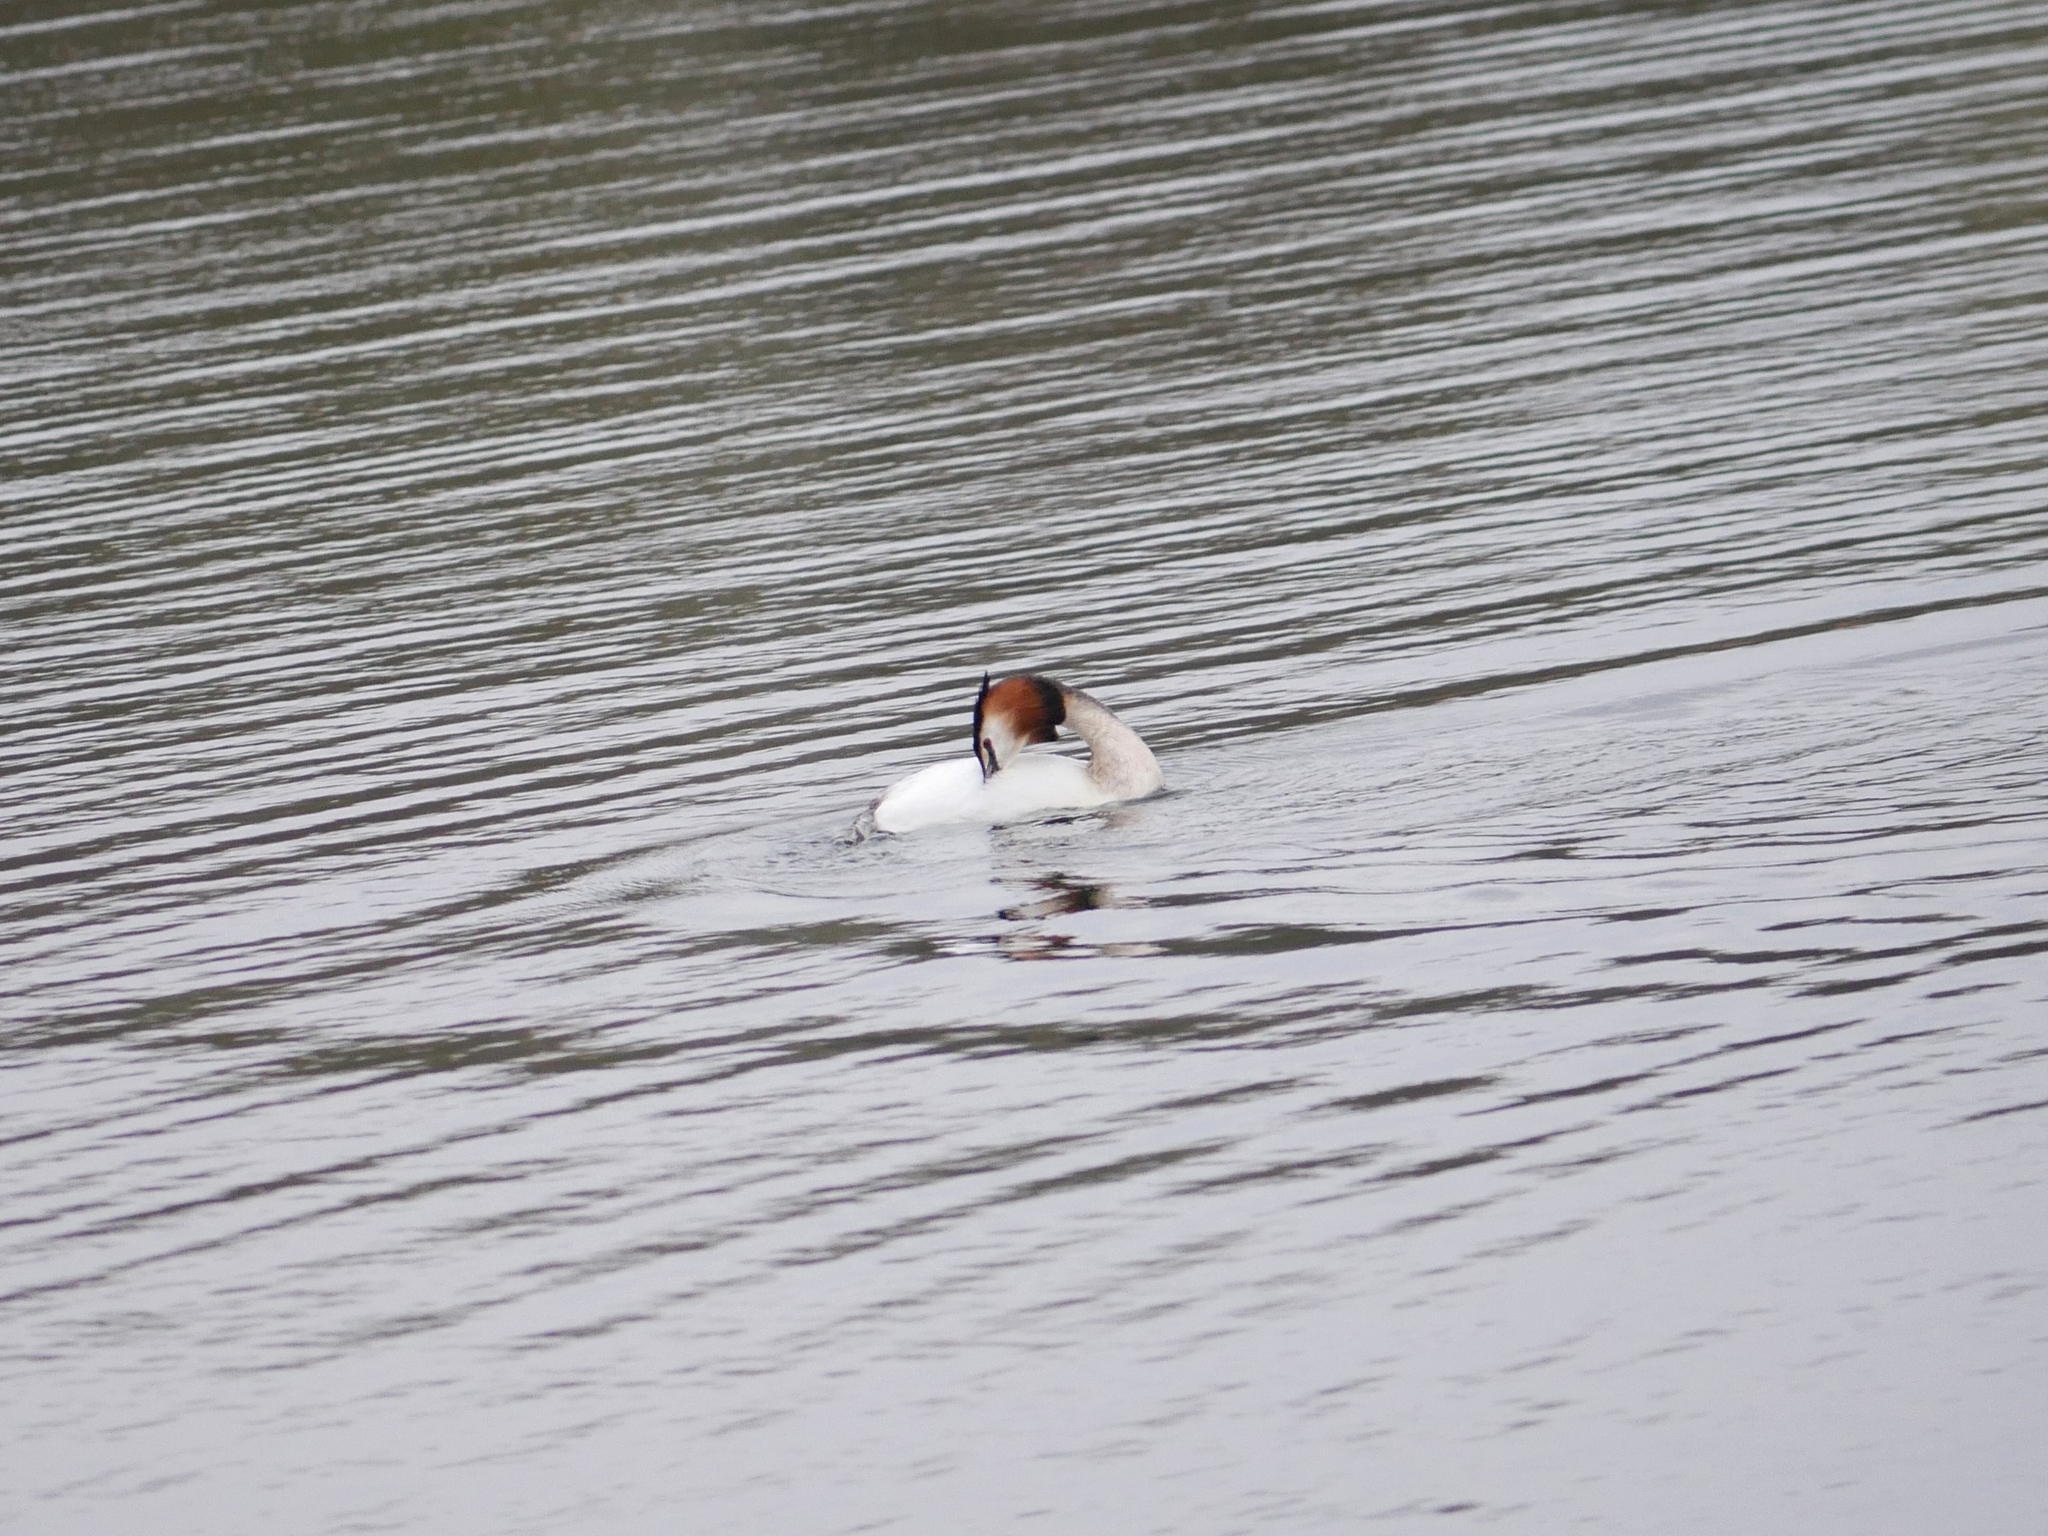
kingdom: Animalia
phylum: Chordata
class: Aves
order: Podicipediformes
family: Podicipedidae
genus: Podiceps
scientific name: Podiceps cristatus
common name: Great crested grebe
